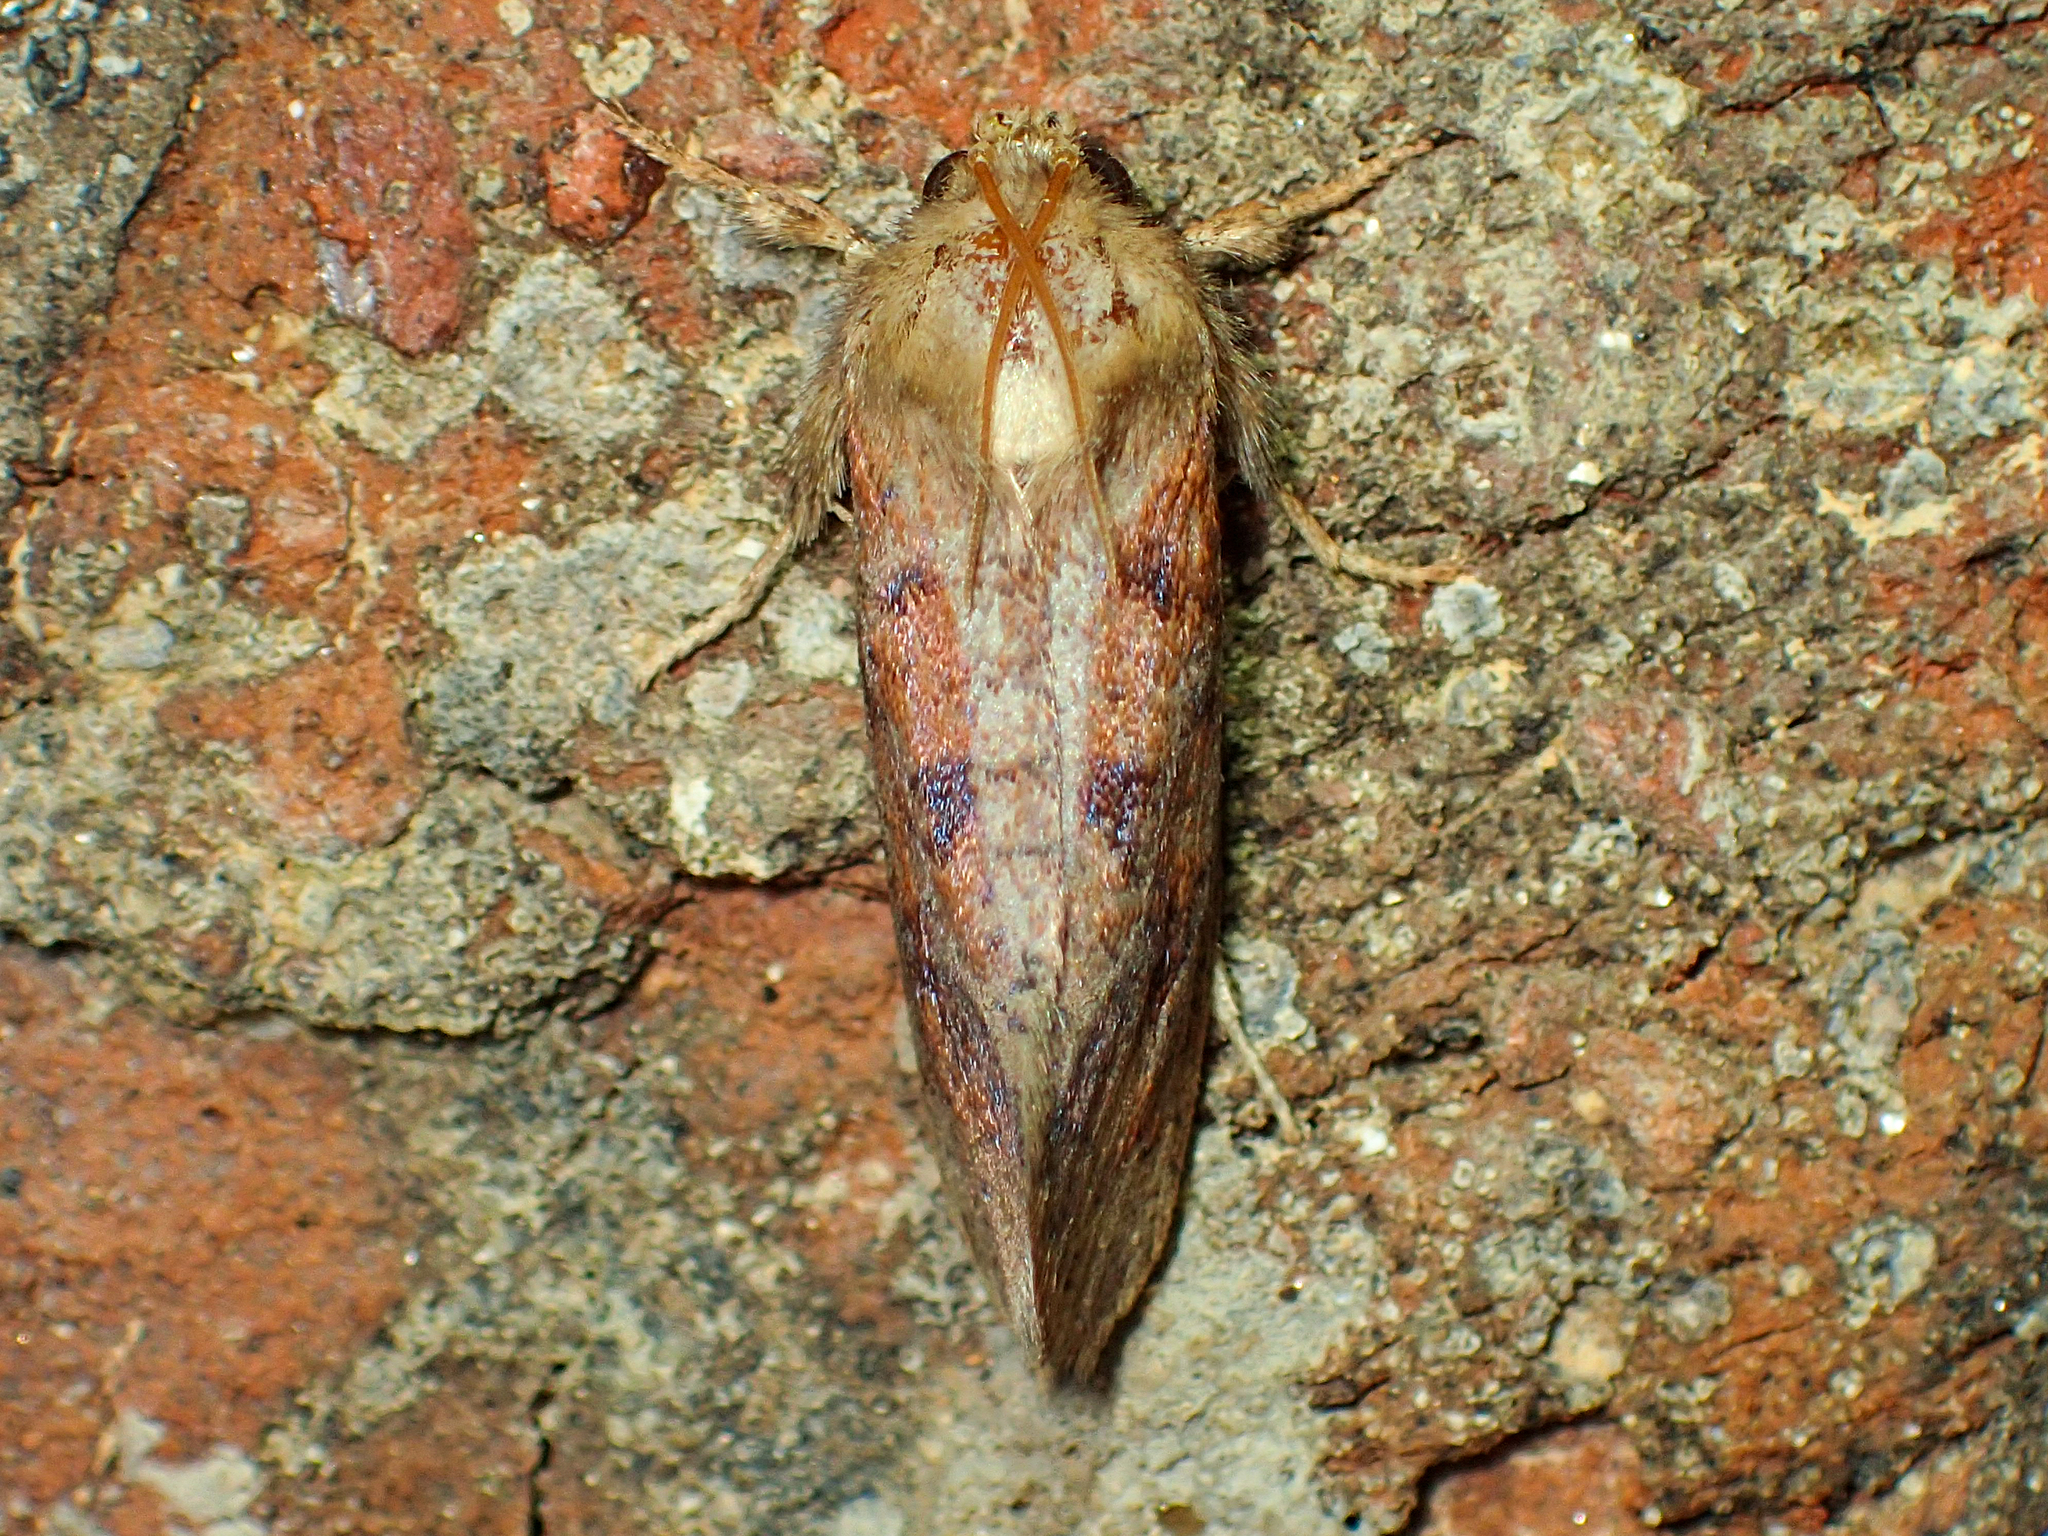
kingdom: Animalia
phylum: Arthropoda
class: Insecta
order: Lepidoptera
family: Tineidae
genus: Acrolophus
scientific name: Acrolophus plumifrontella
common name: Eastern grass tubeworm moth
